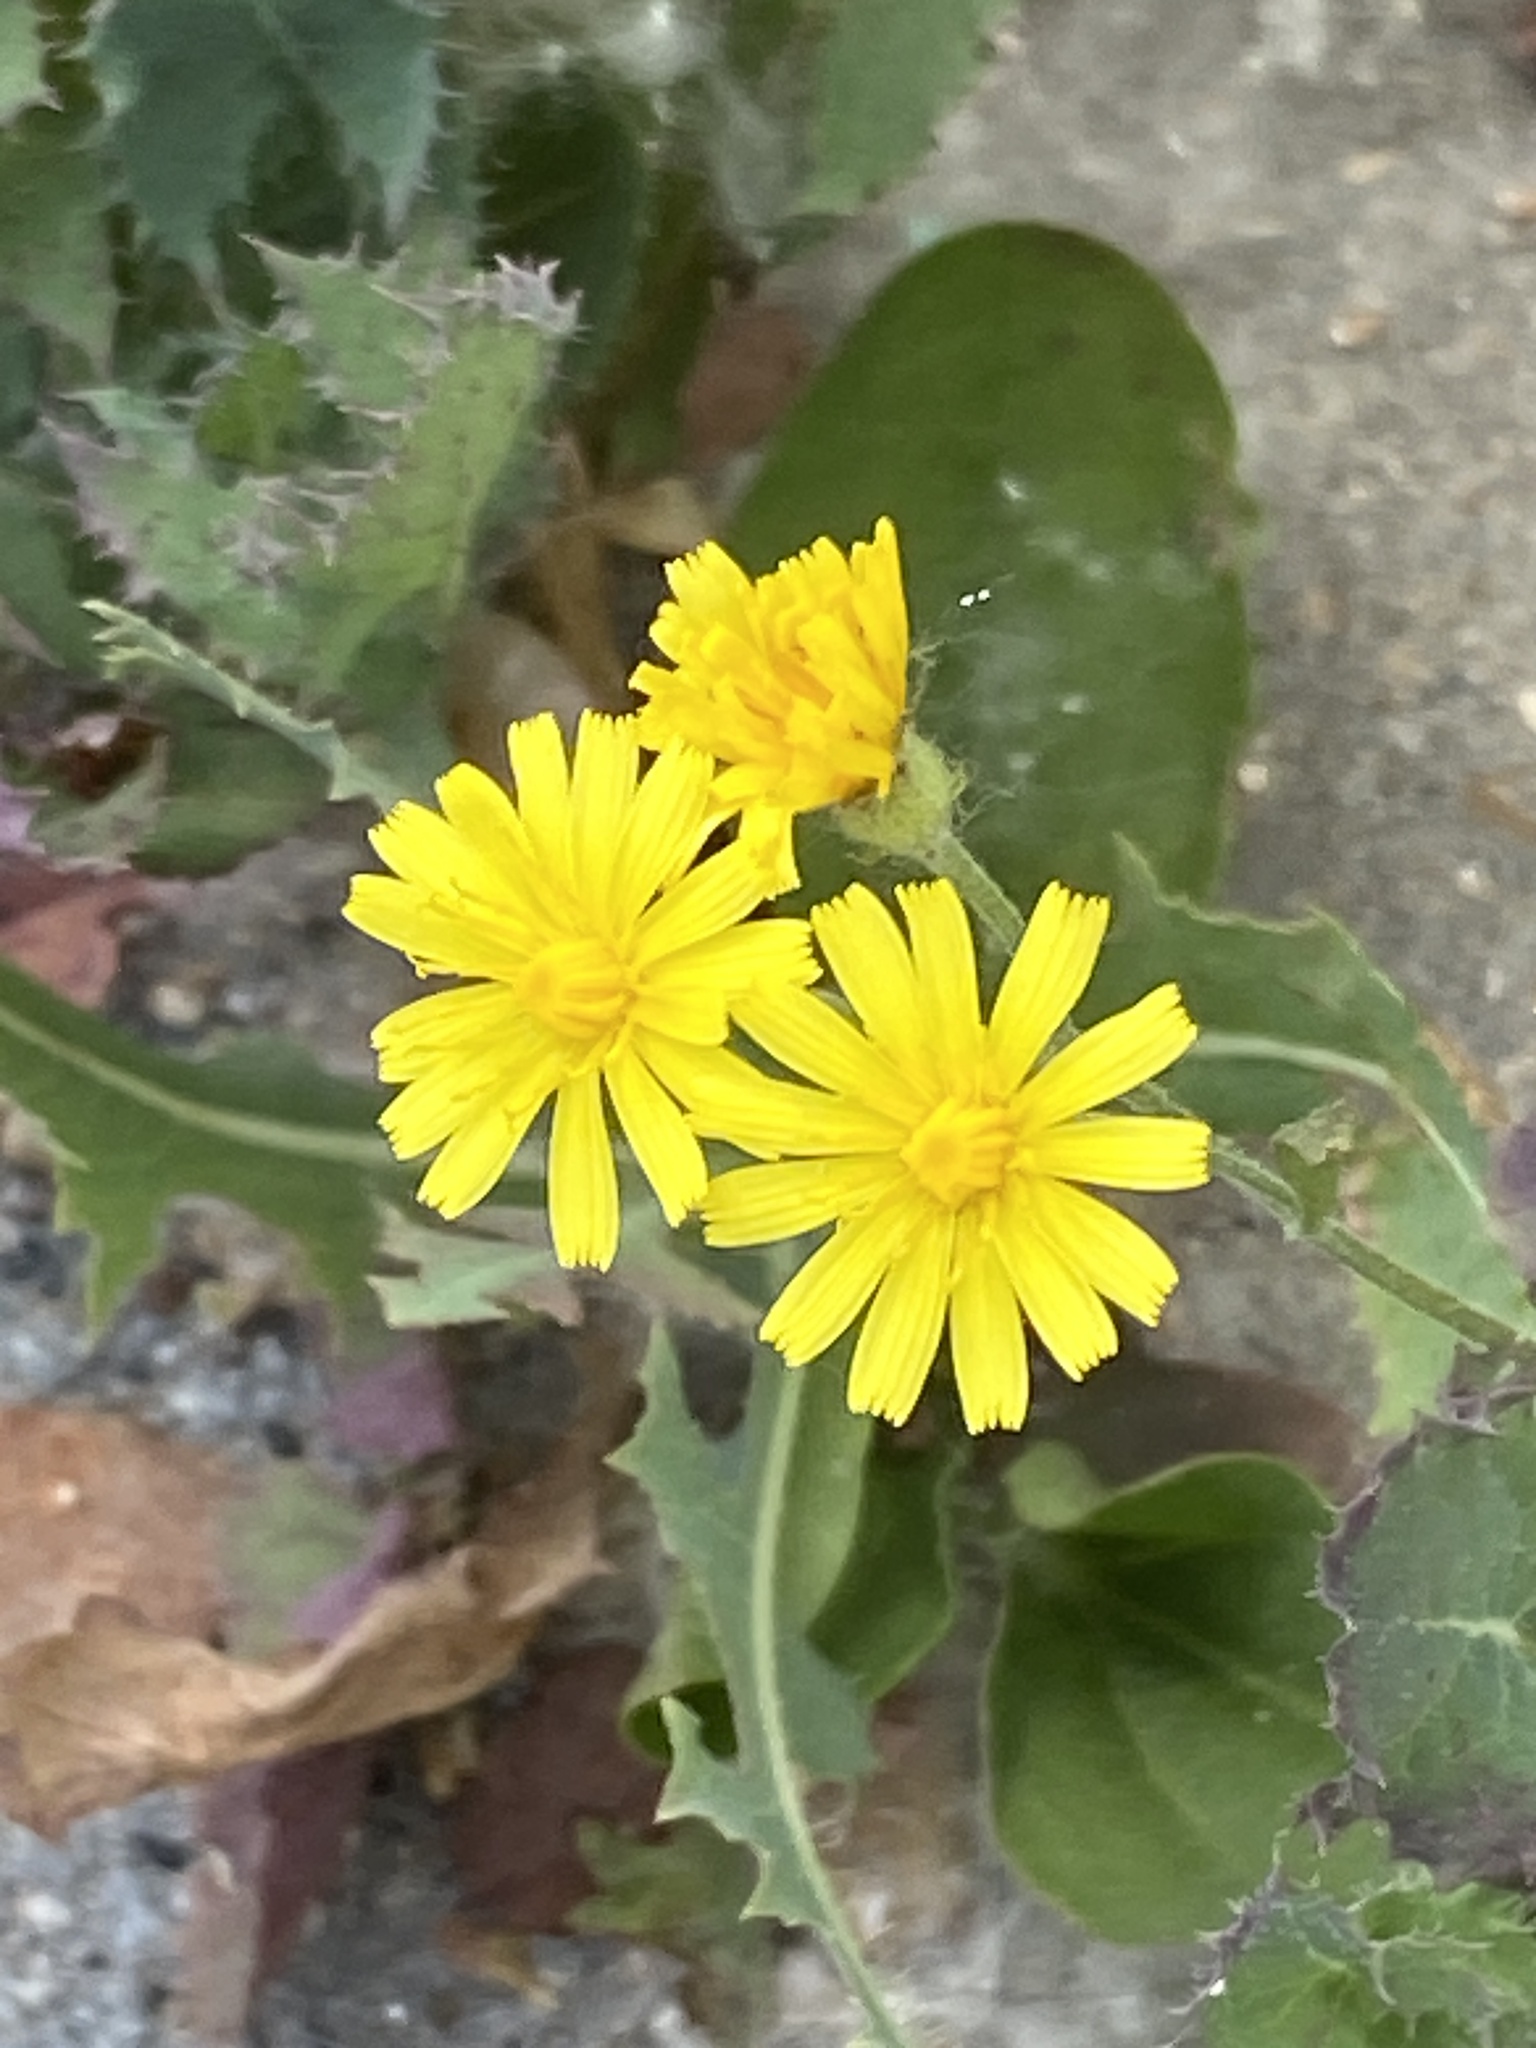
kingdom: Plantae
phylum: Tracheophyta
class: Magnoliopsida
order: Asterales
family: Asteraceae
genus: Crepis
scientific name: Crepis tectorum
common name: Narrow-leaved hawk's-beard
